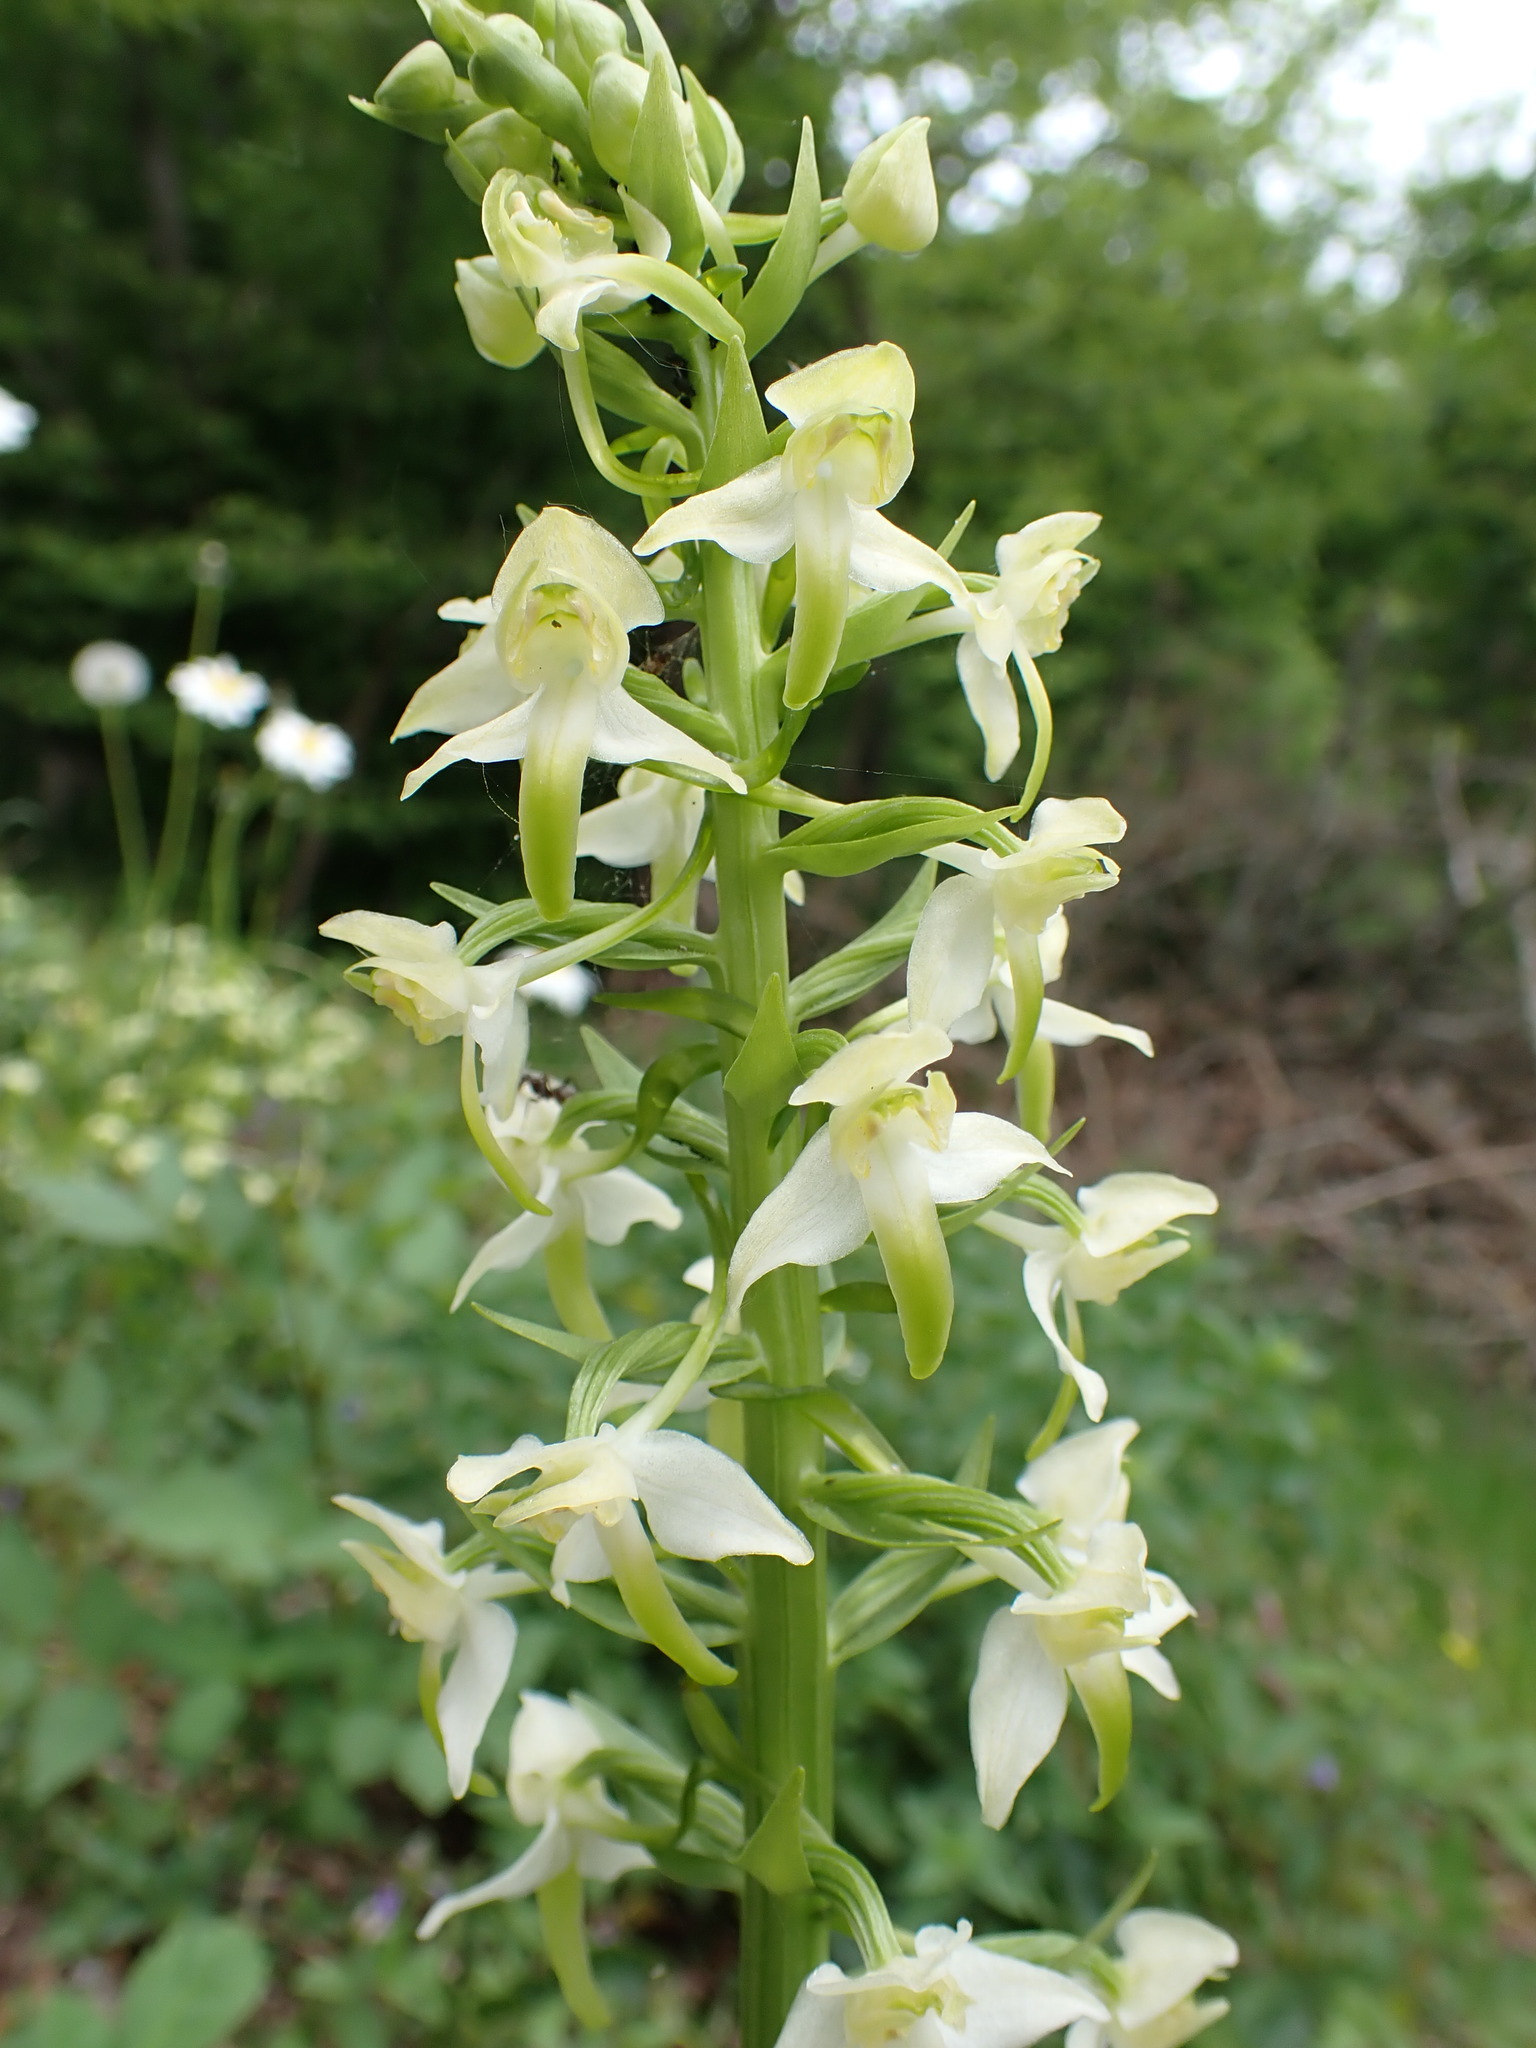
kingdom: Plantae
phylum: Tracheophyta
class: Liliopsida
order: Asparagales
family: Orchidaceae
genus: Platanthera
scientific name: Platanthera chlorantha
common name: Greater butterfly-orchid
